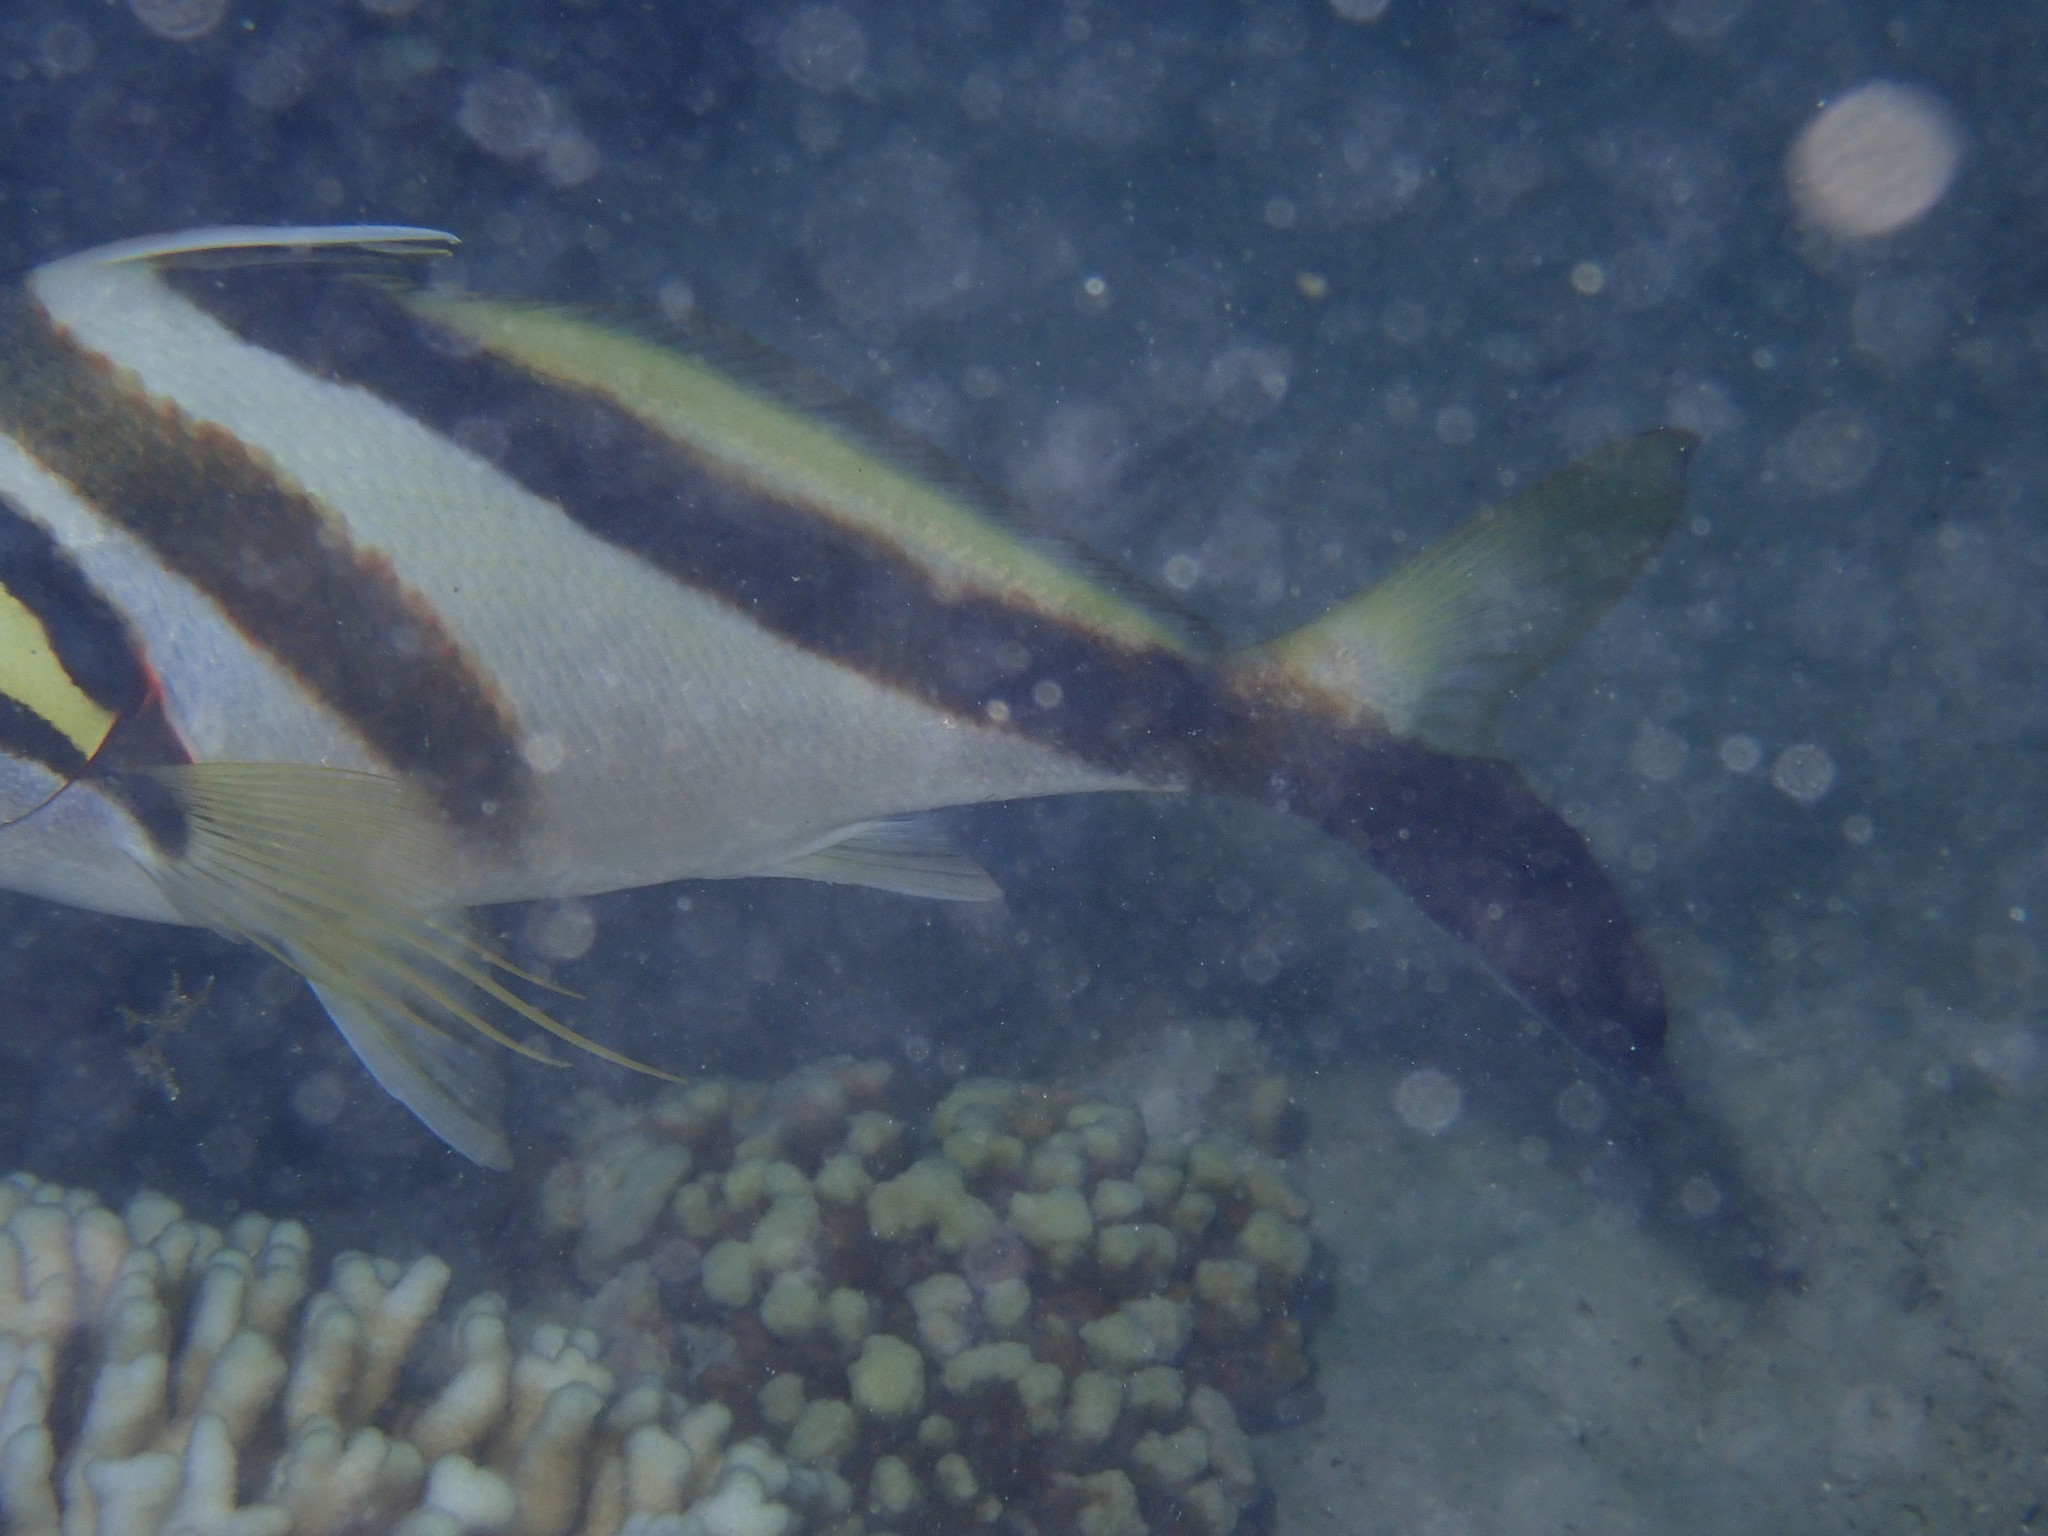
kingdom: Animalia
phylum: Chordata
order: Perciformes
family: Cheilodactylidae
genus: Cheilodactylus
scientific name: Cheilodactylus vestitus
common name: Crested morwong
